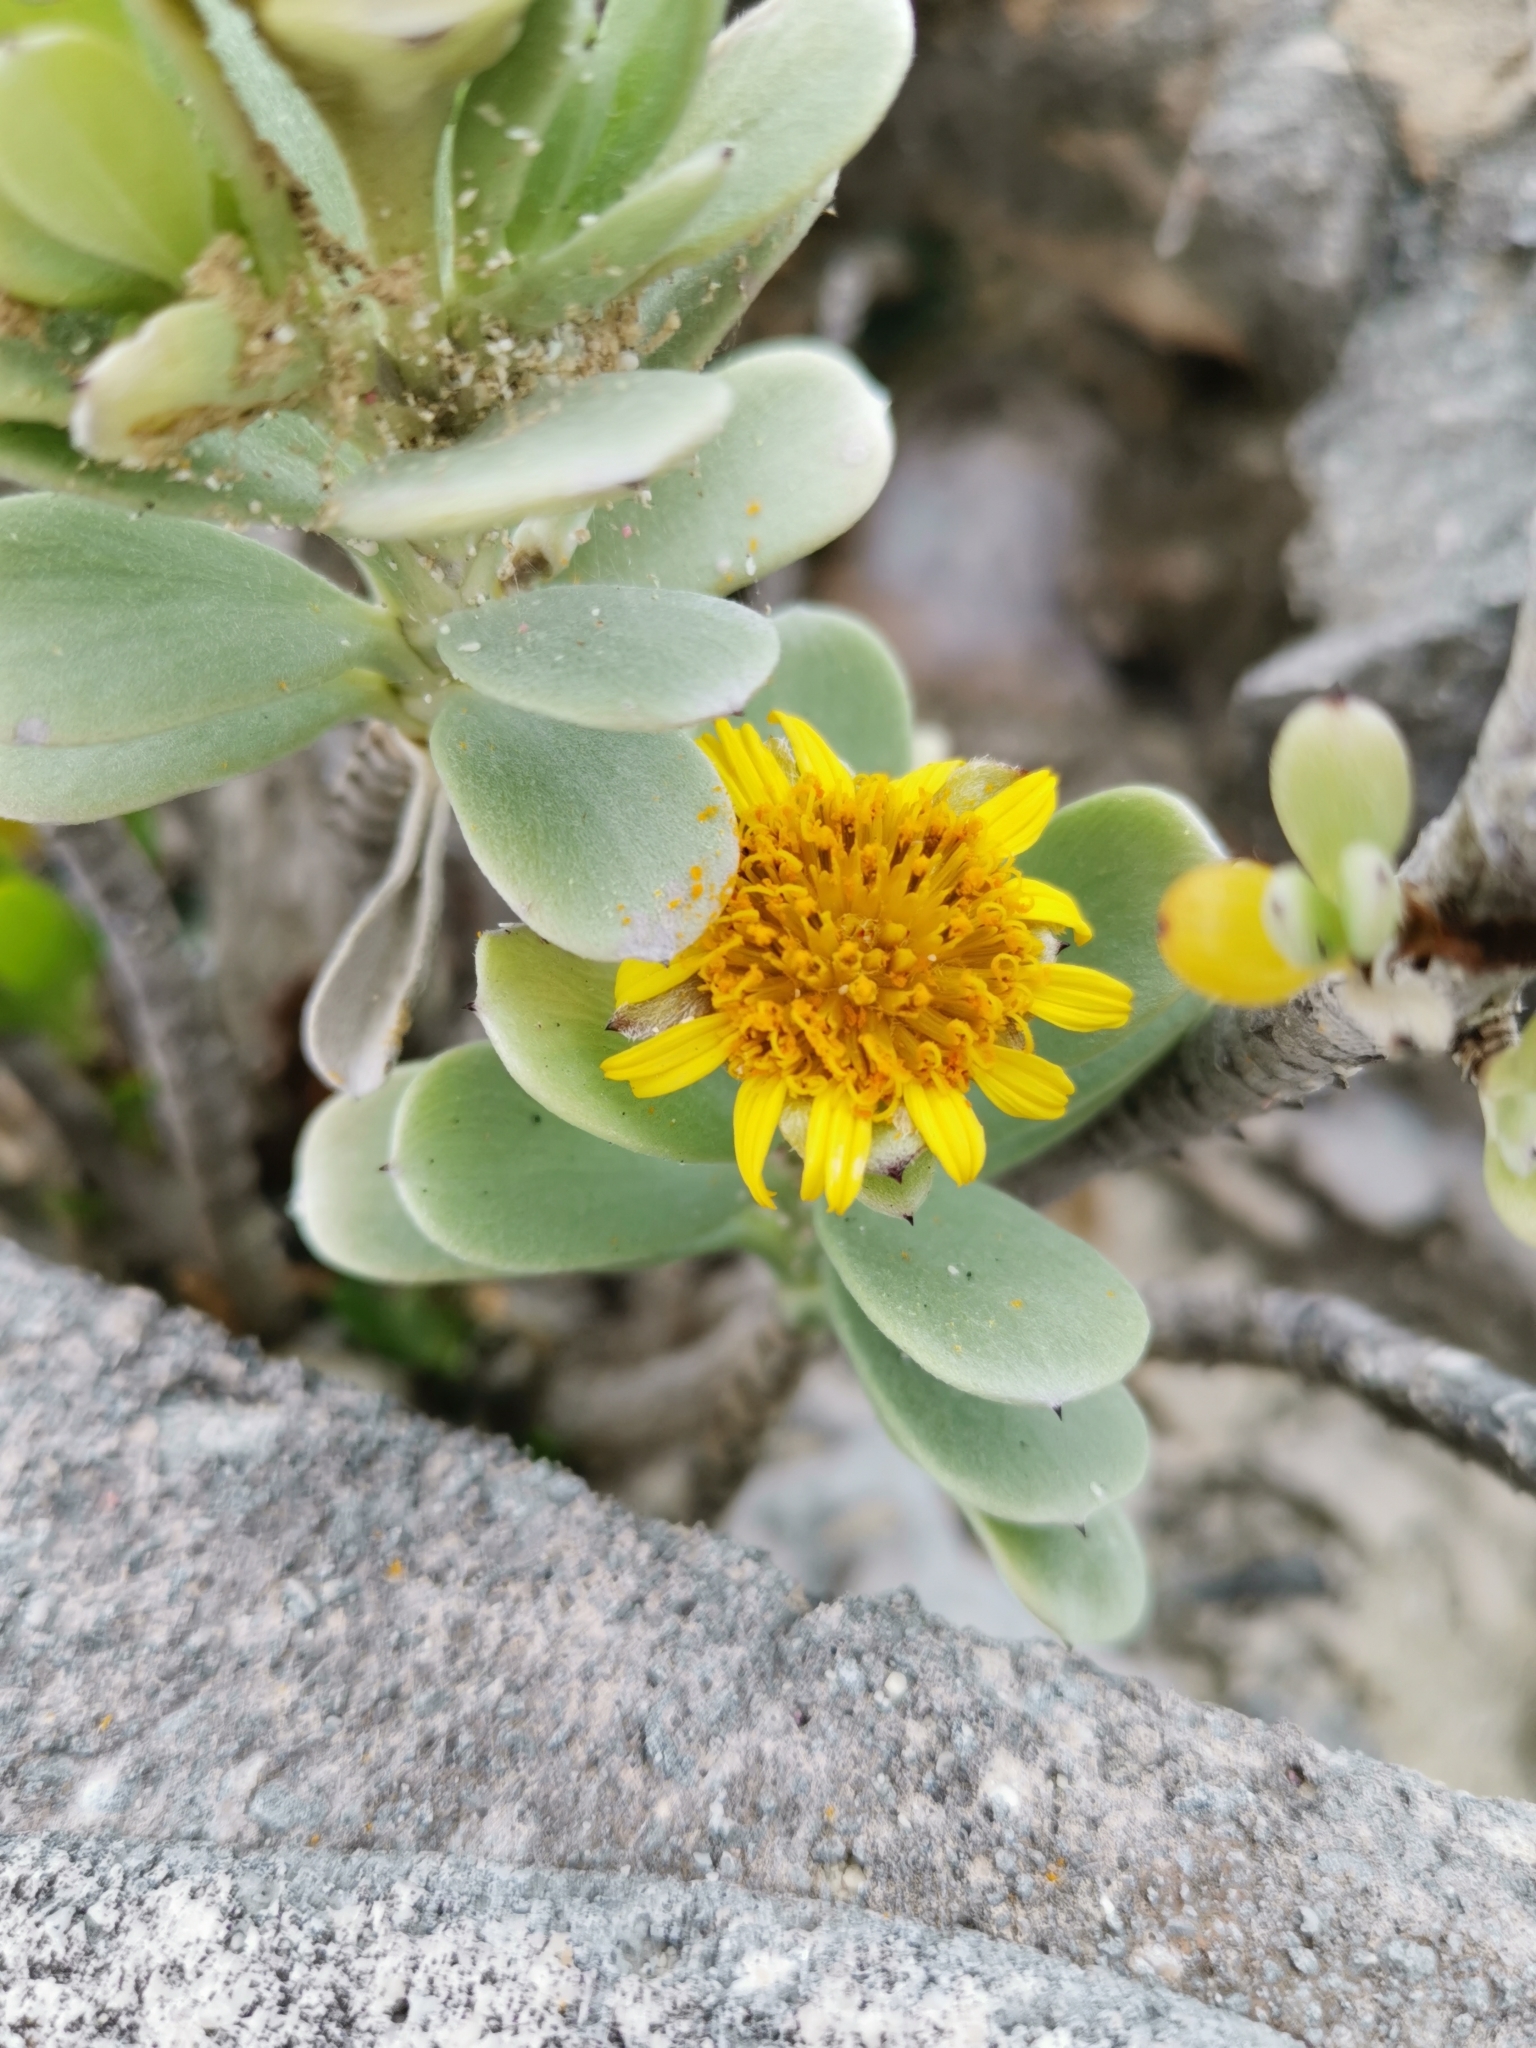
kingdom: Plantae
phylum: Tracheophyta
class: Magnoliopsida
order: Asterales
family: Asteraceae
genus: Borrichia
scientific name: Borrichia arborescens
